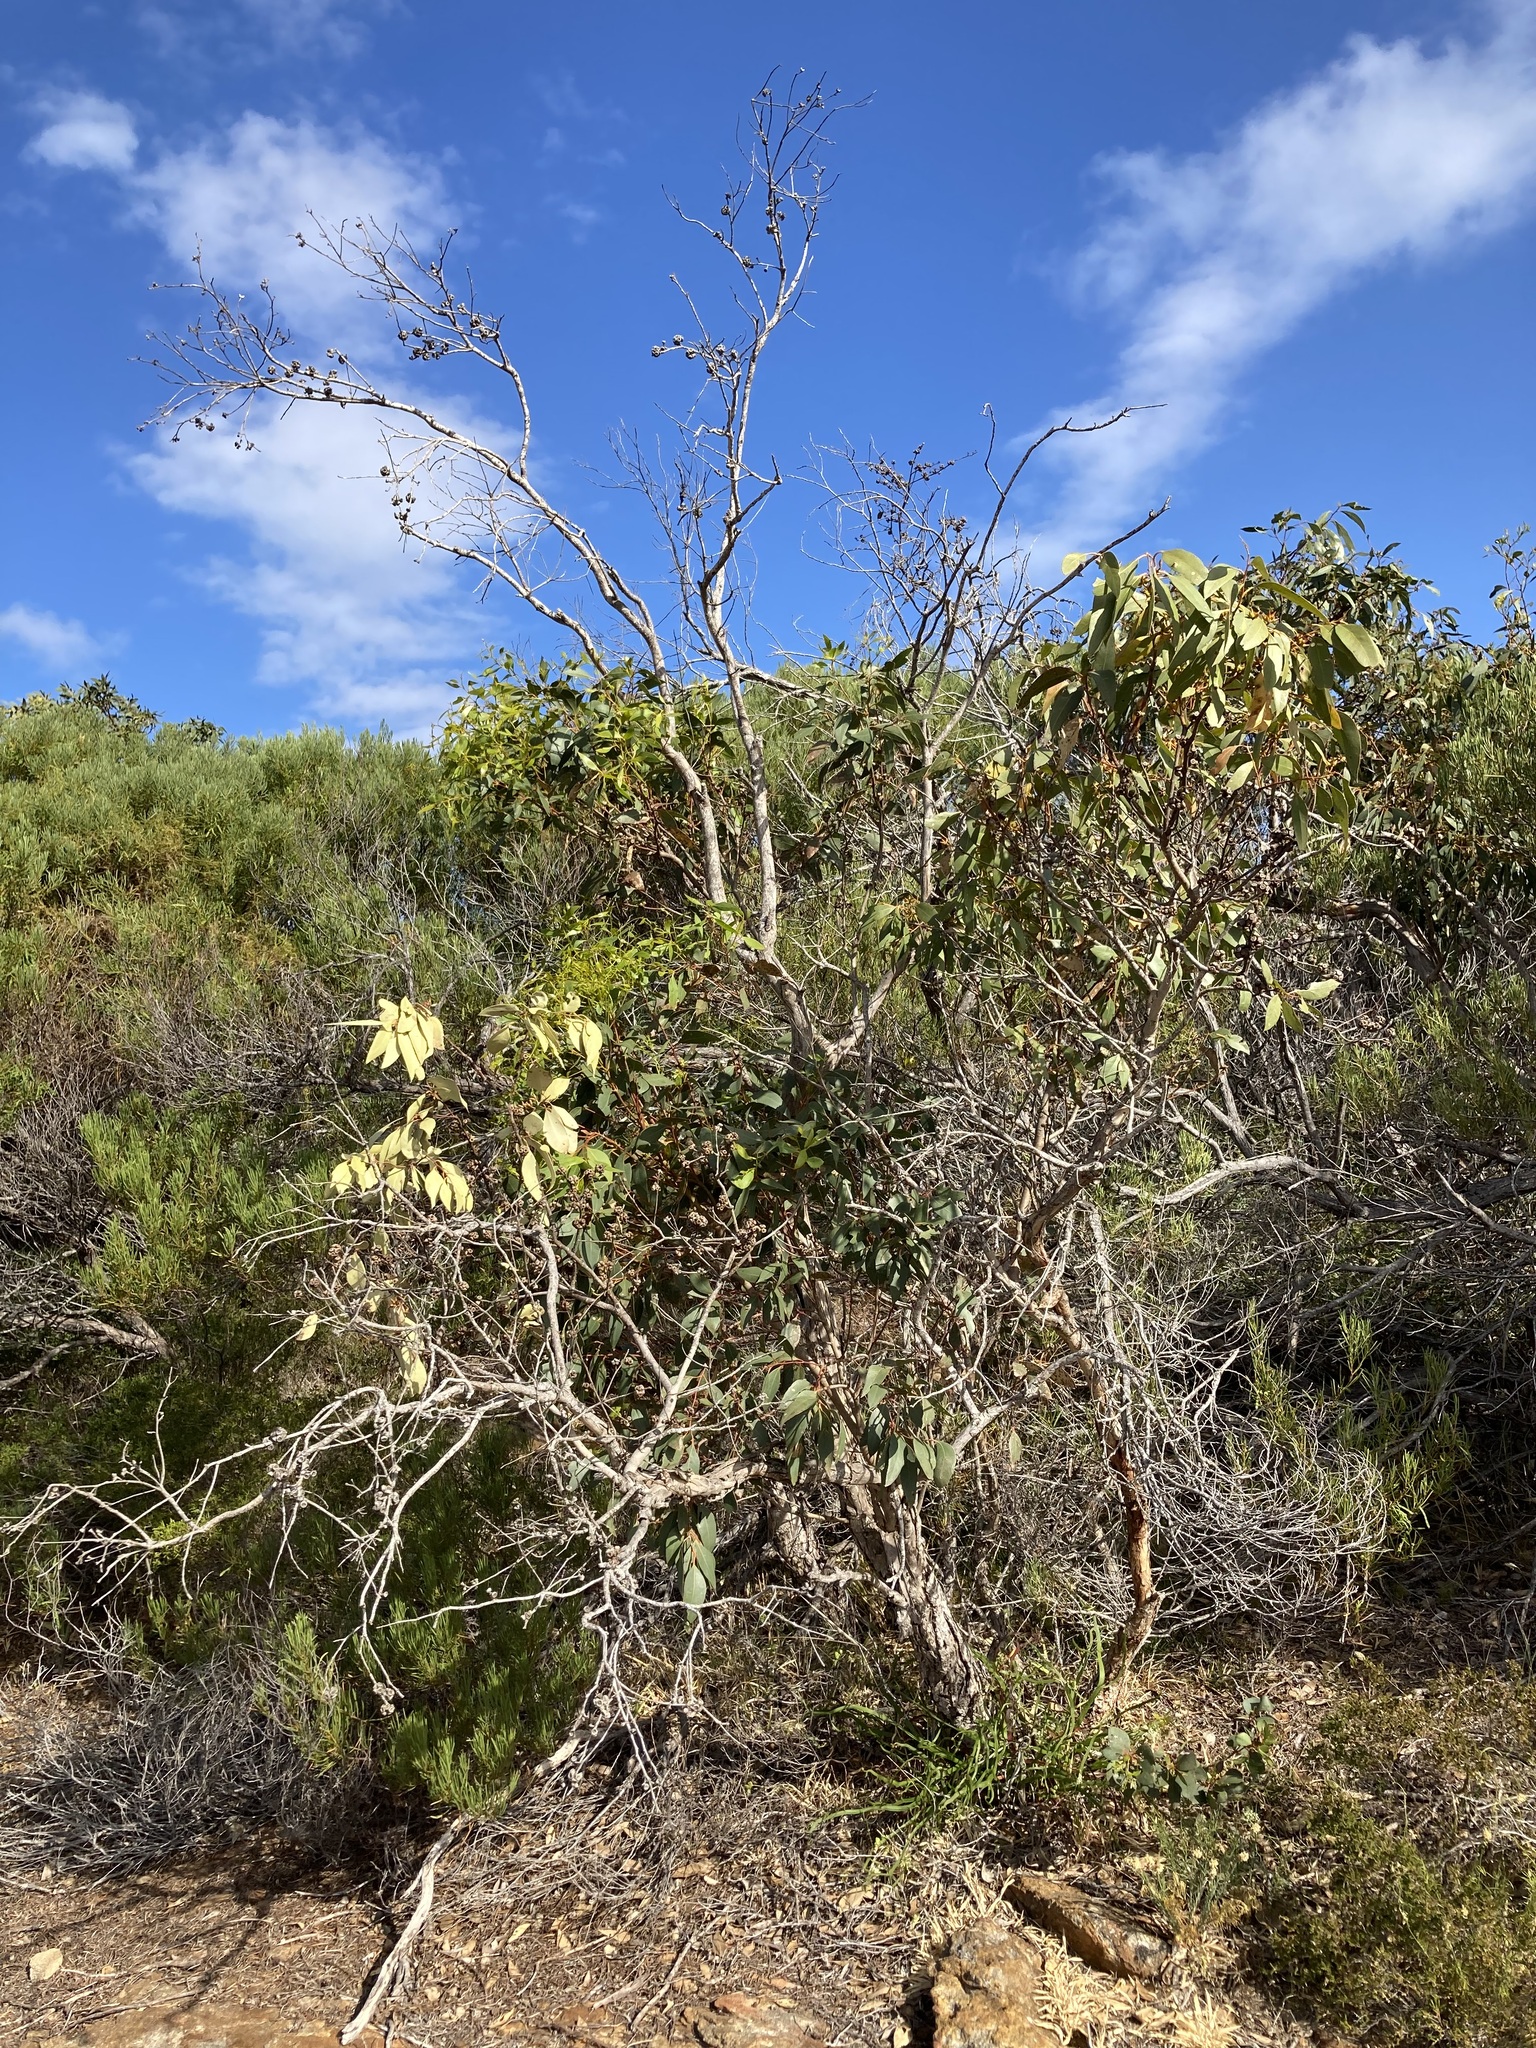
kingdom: Plantae
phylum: Tracheophyta
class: Magnoliopsida
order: Myrtales
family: Myrtaceae
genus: Eucalyptus
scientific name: Eucalyptus adesmophloia
